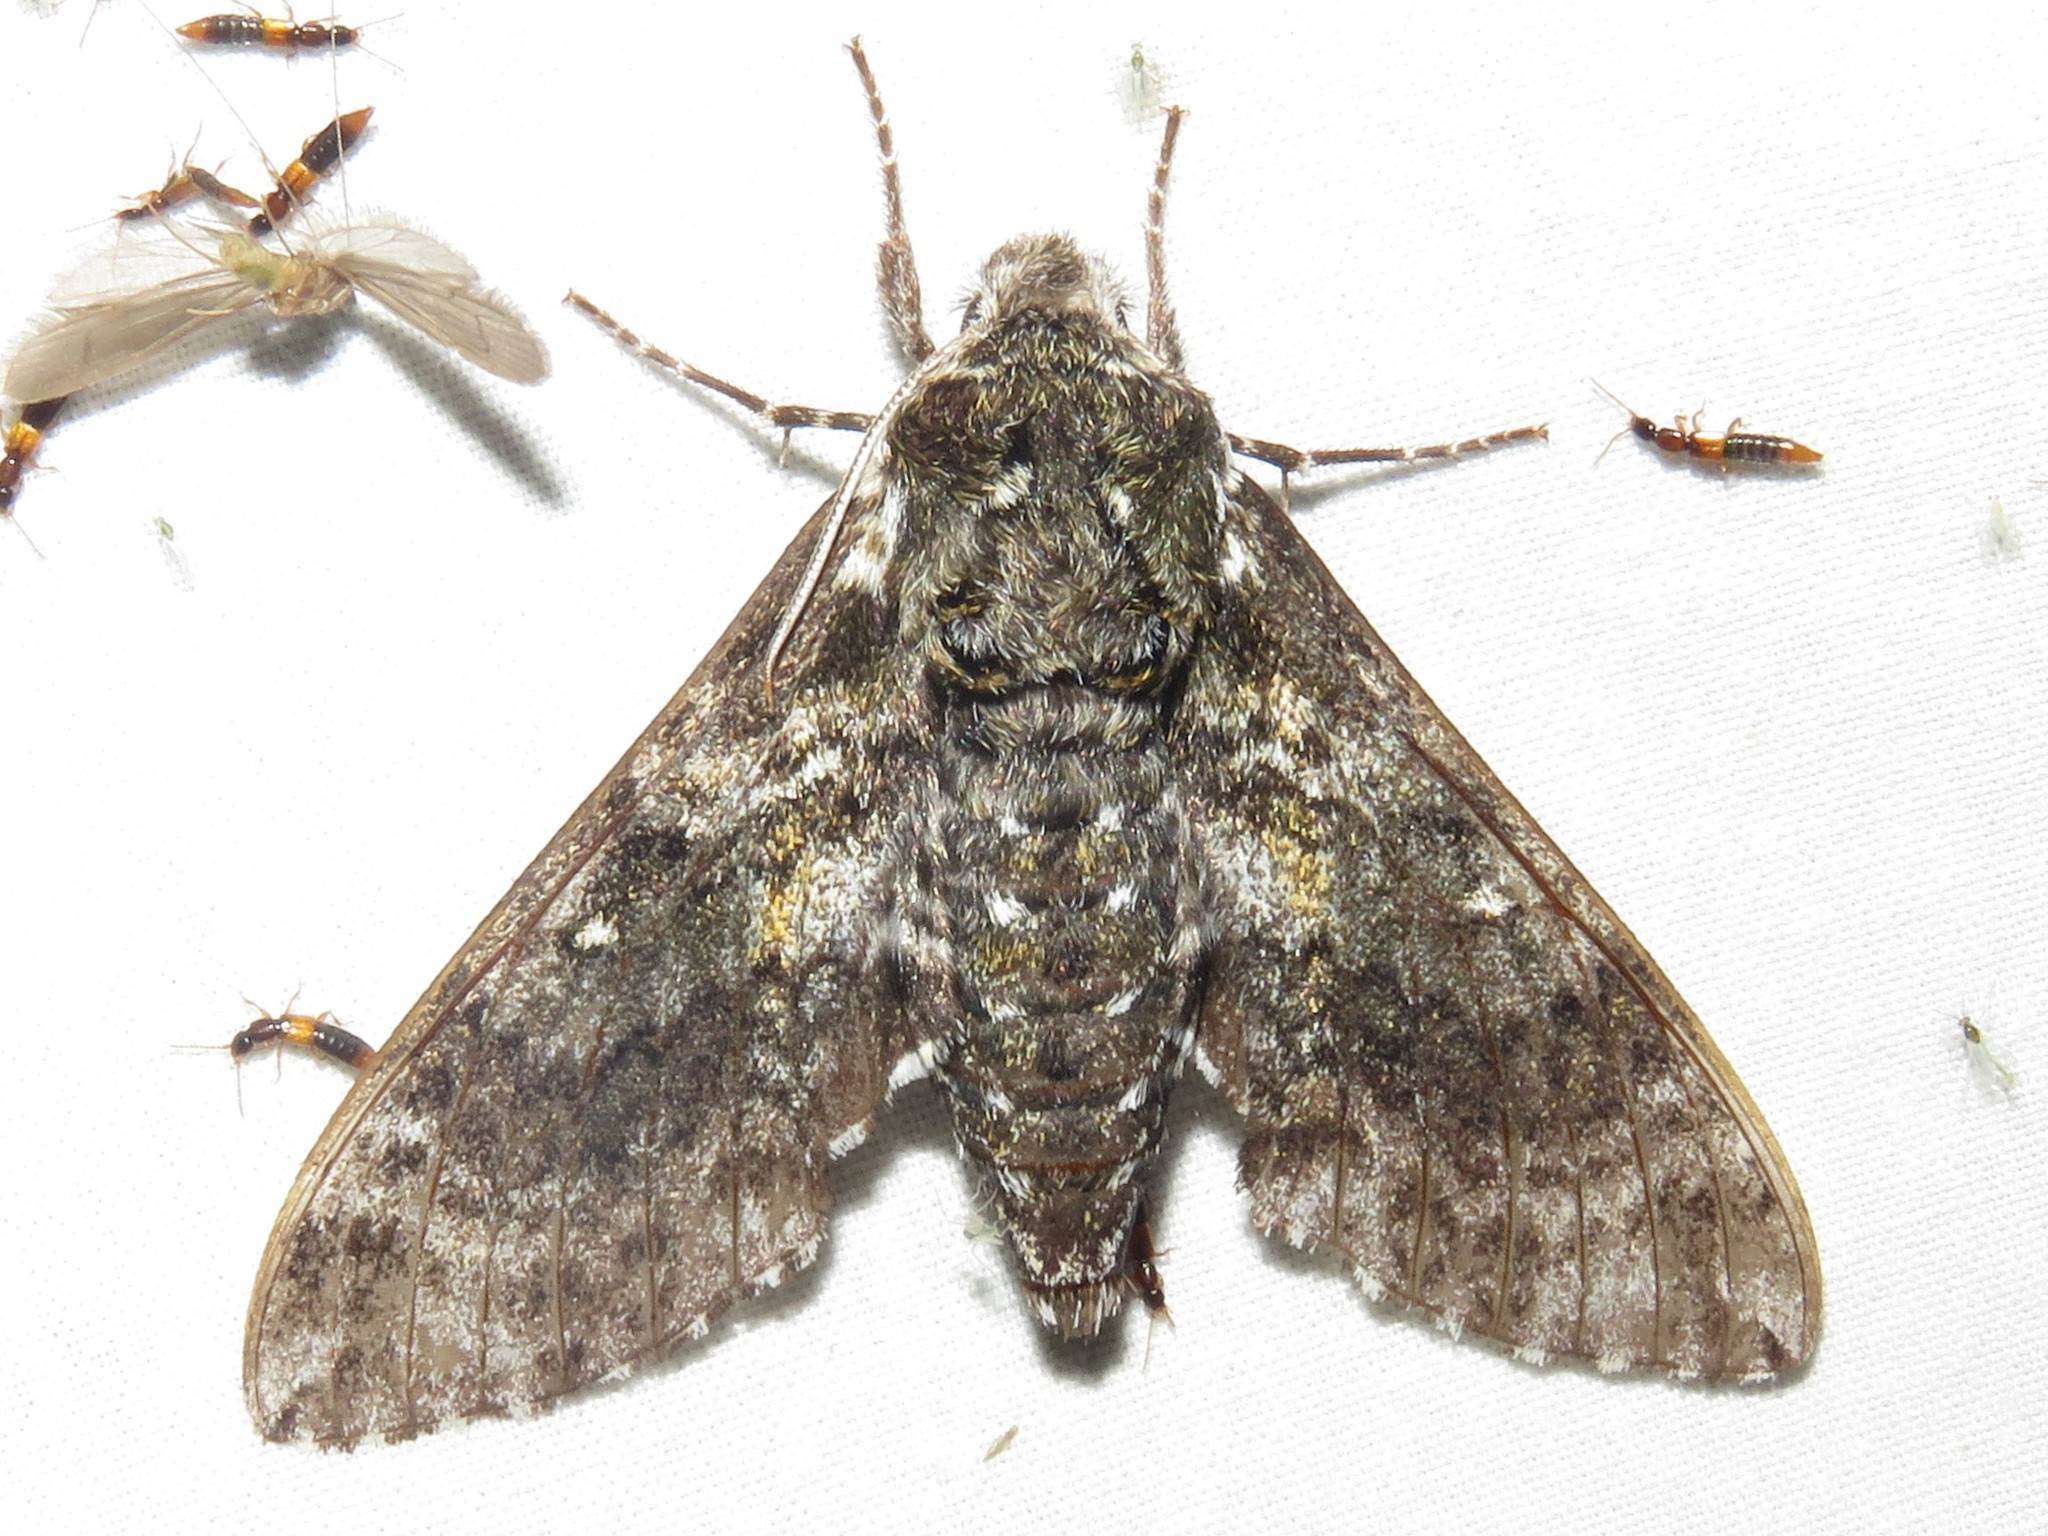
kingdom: Animalia
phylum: Arthropoda
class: Insecta
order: Lepidoptera
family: Sphingidae
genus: Dolba
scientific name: Dolba hyloeus
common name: Pawpaw sphinx
